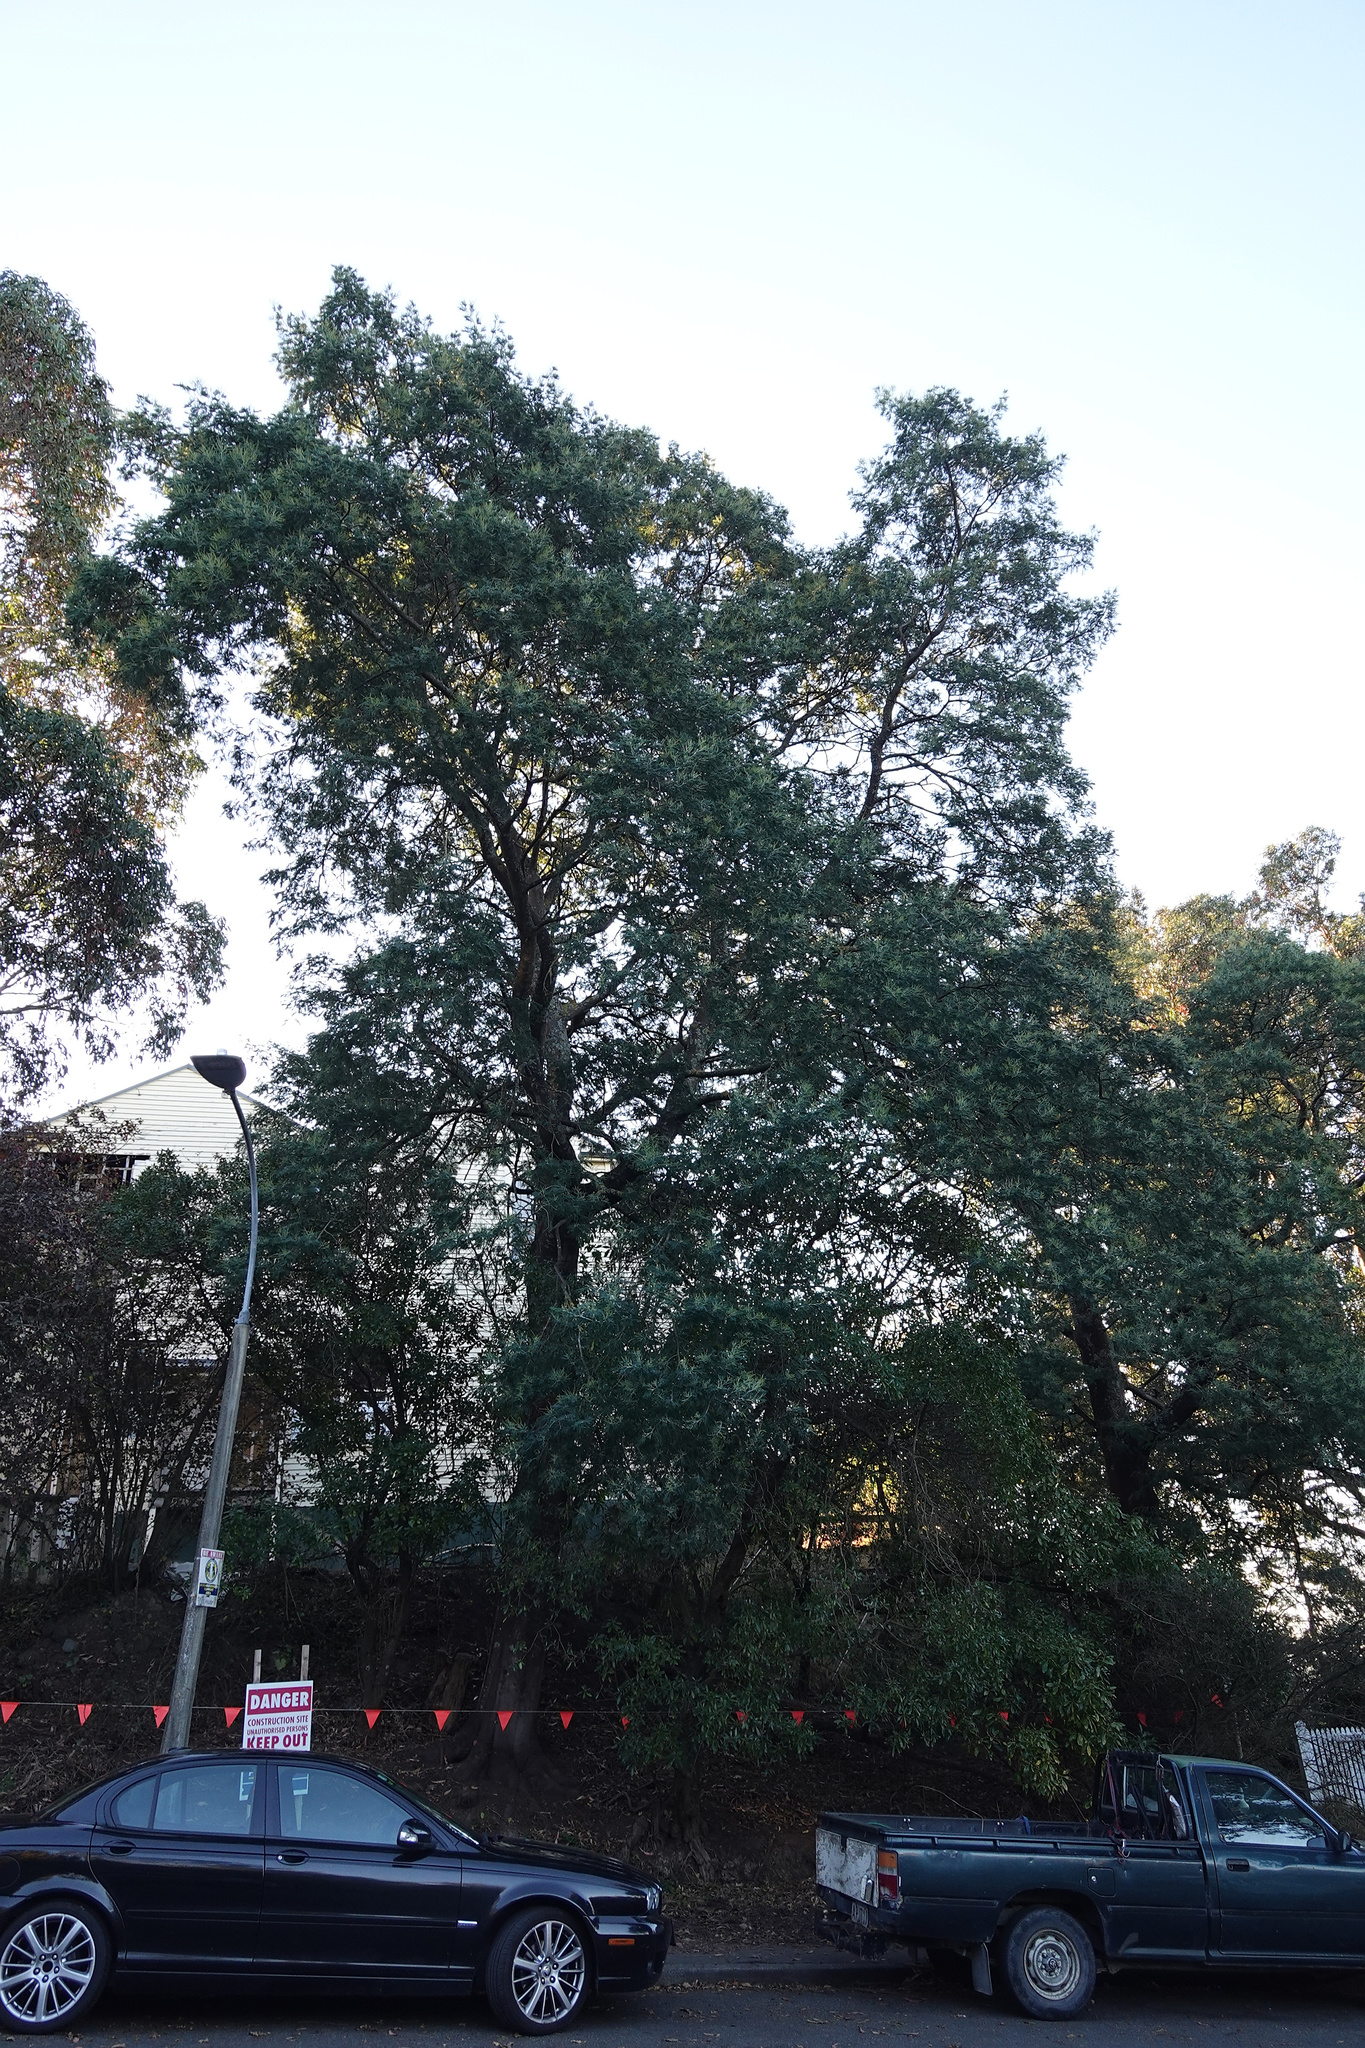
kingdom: Plantae
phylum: Tracheophyta
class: Magnoliopsida
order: Fabales
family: Fabaceae
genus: Acacia
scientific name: Acacia dealbata
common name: Silver wattle
